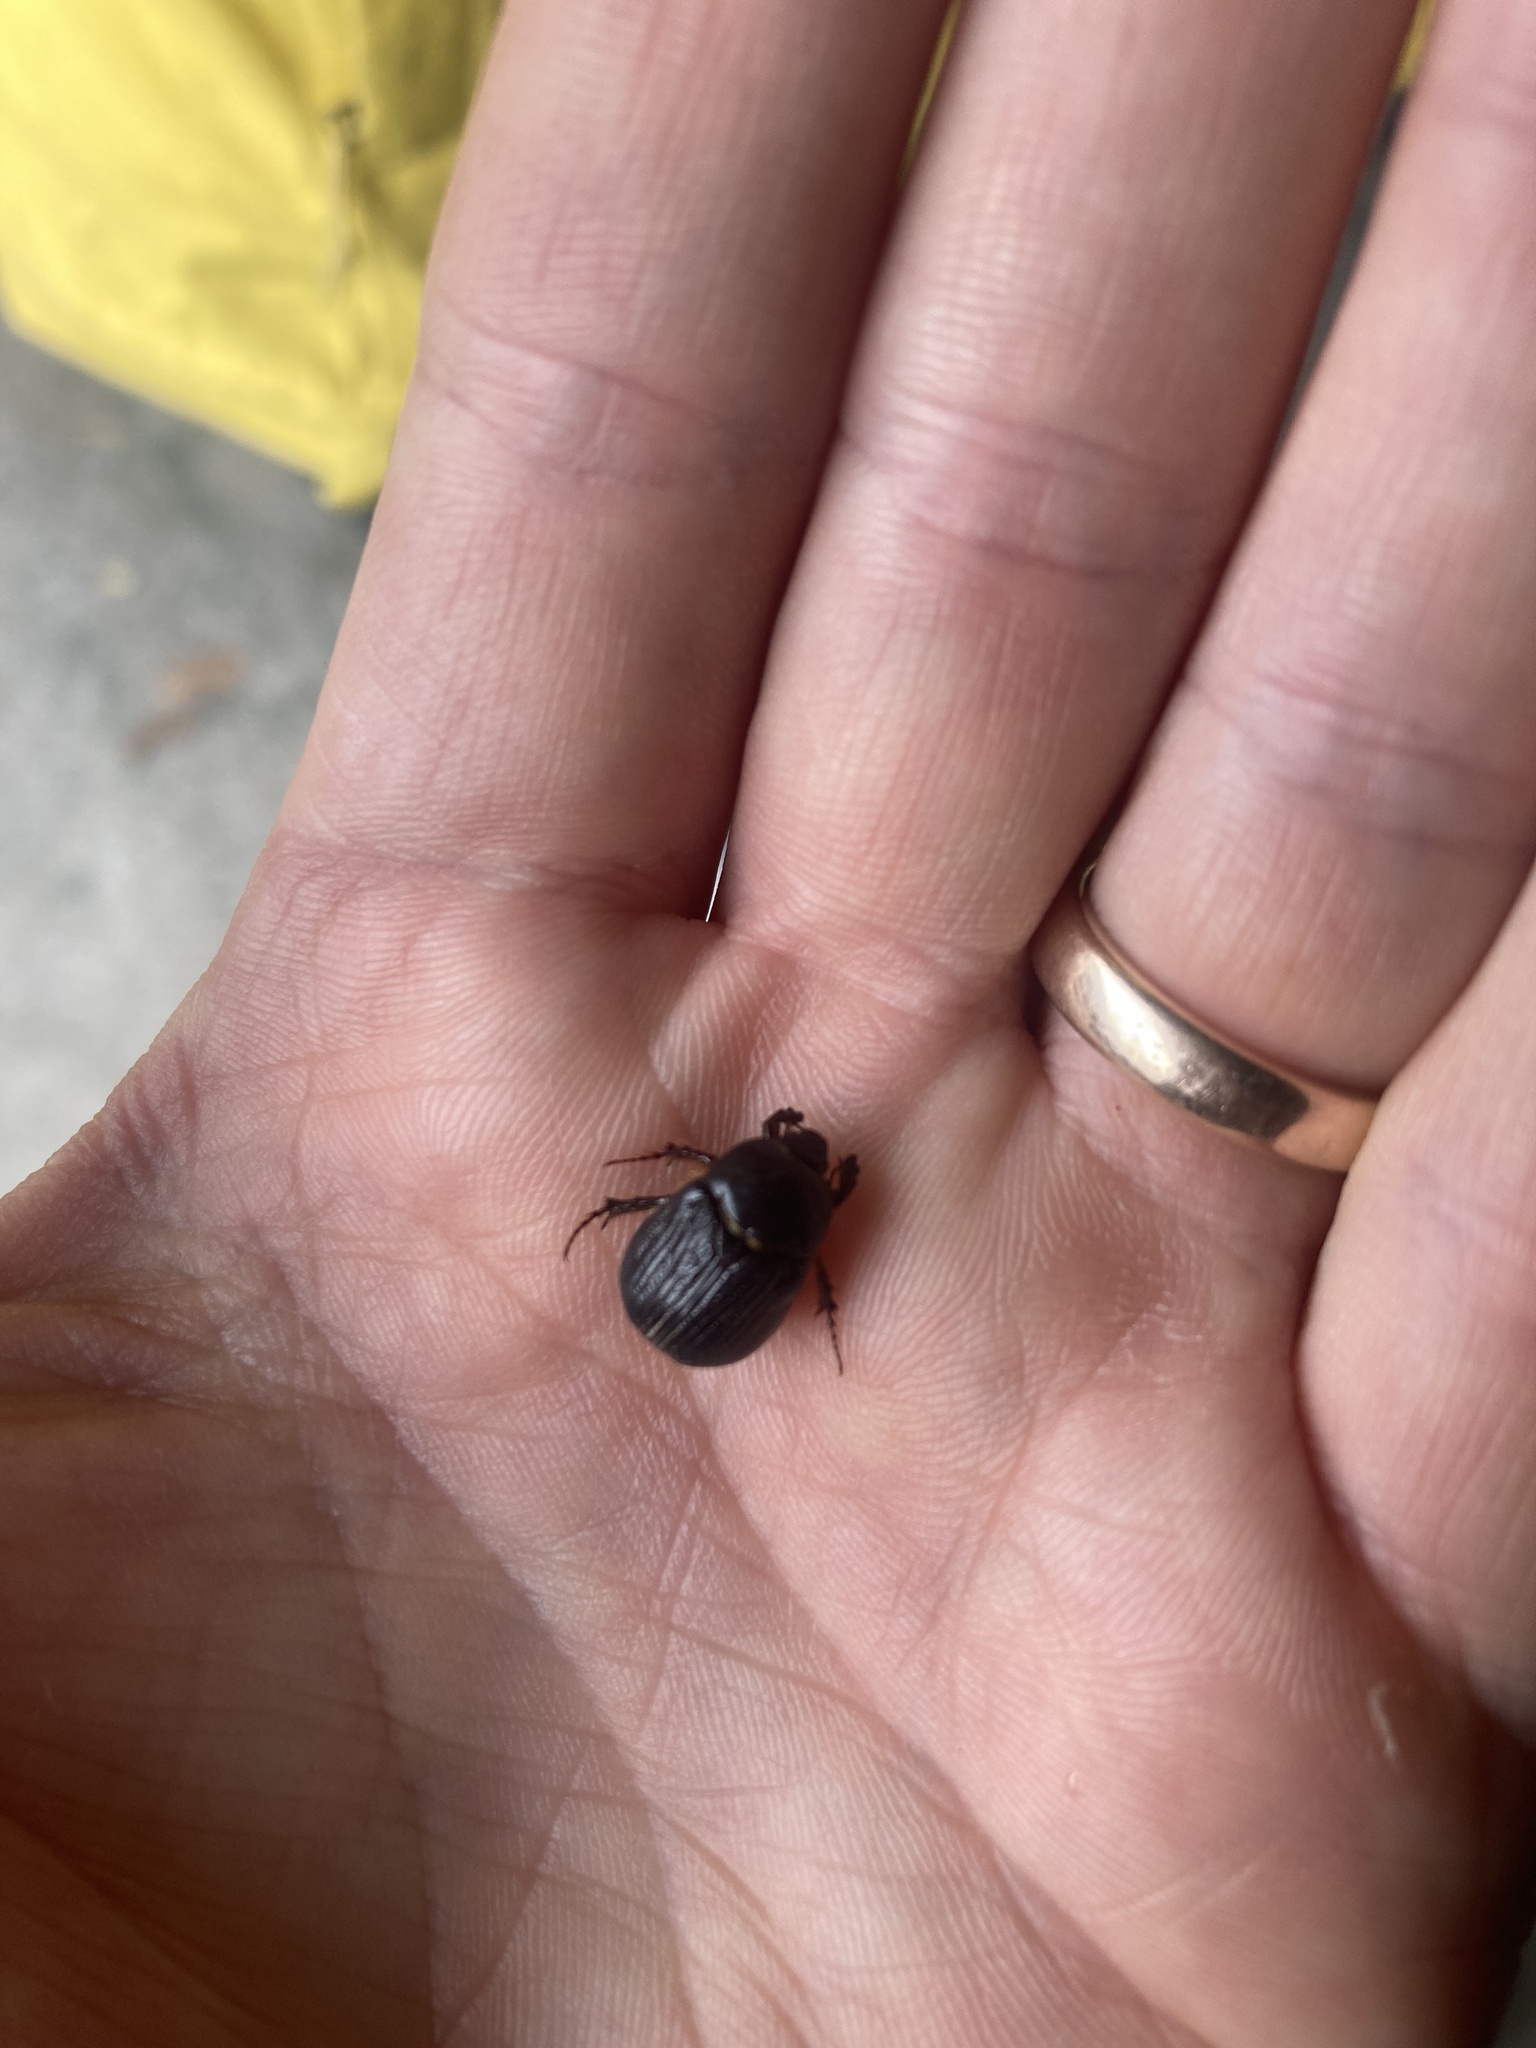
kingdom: Animalia
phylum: Arthropoda
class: Insecta
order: Coleoptera
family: Scarabaeidae
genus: Adoryphorus
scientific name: Adoryphorus couloni
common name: Redheaded pasture cockchafer
